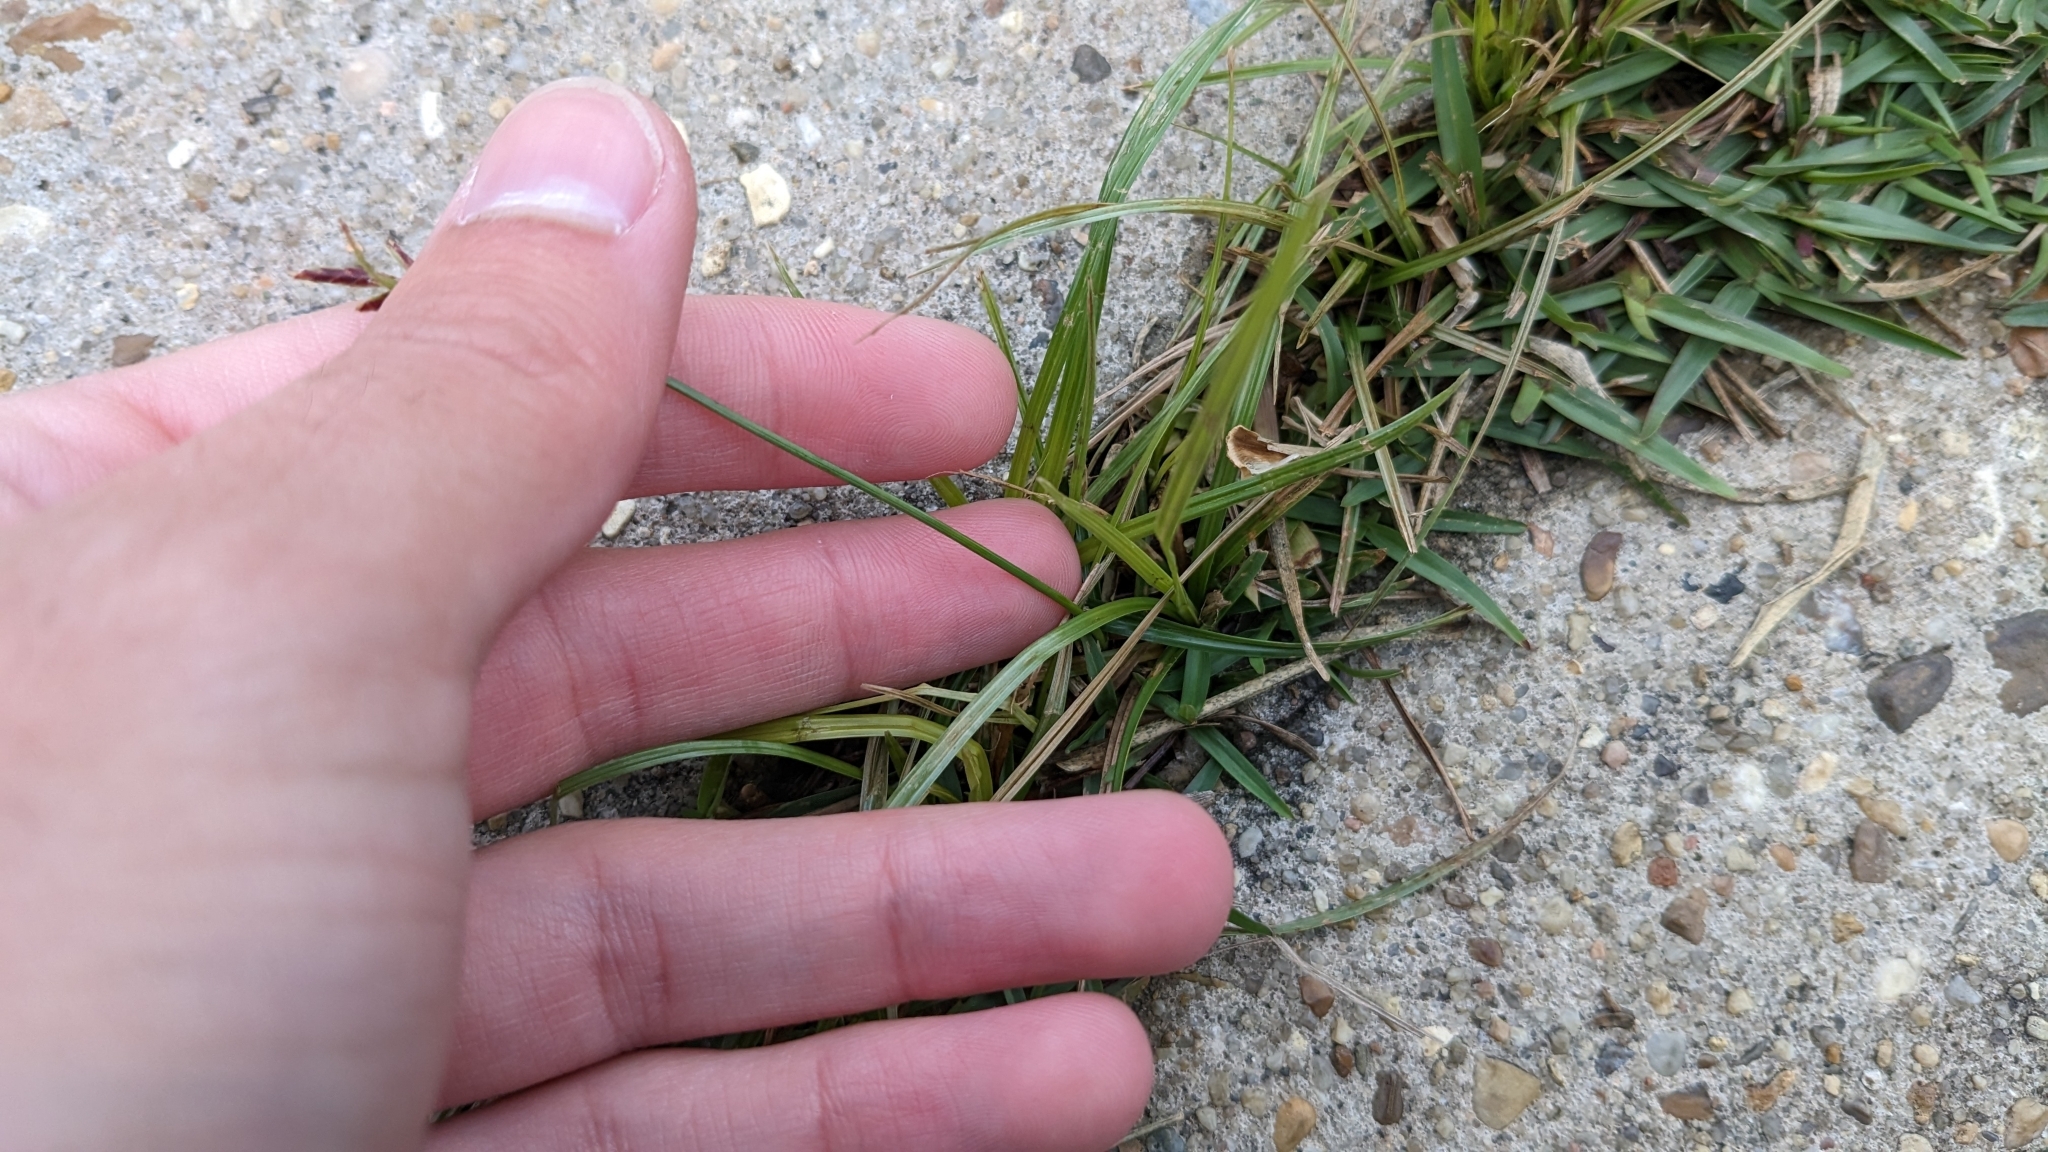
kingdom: Plantae
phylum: Tracheophyta
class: Liliopsida
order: Poales
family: Cyperaceae
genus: Cyperus
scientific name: Cyperus rotundus
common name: Nutgrass
